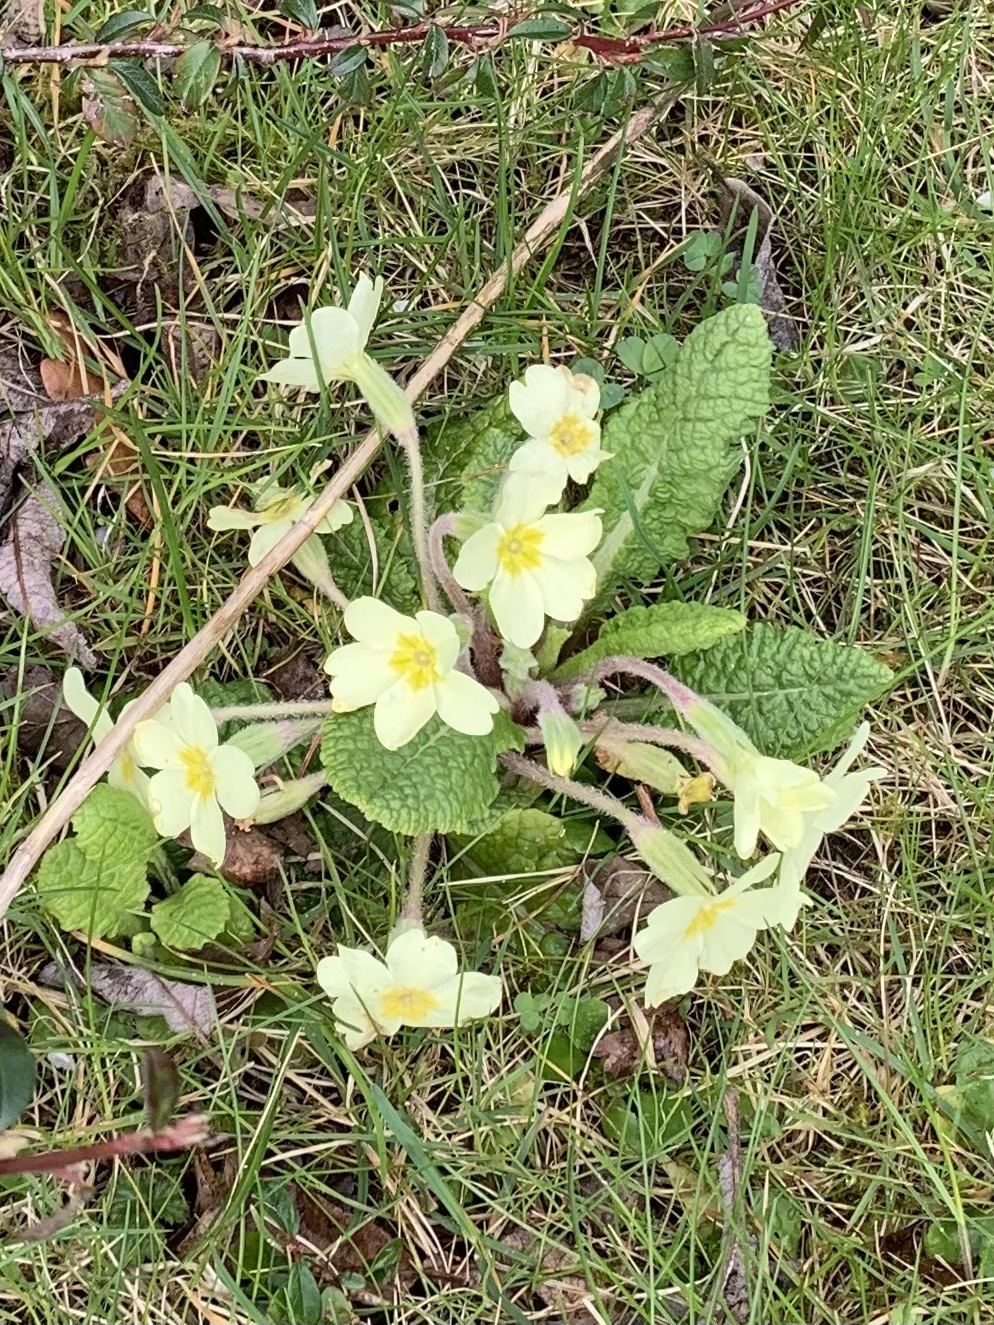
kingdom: Plantae
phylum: Tracheophyta
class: Magnoliopsida
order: Ericales
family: Primulaceae
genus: Primula
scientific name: Primula vulgaris
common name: Primrose
